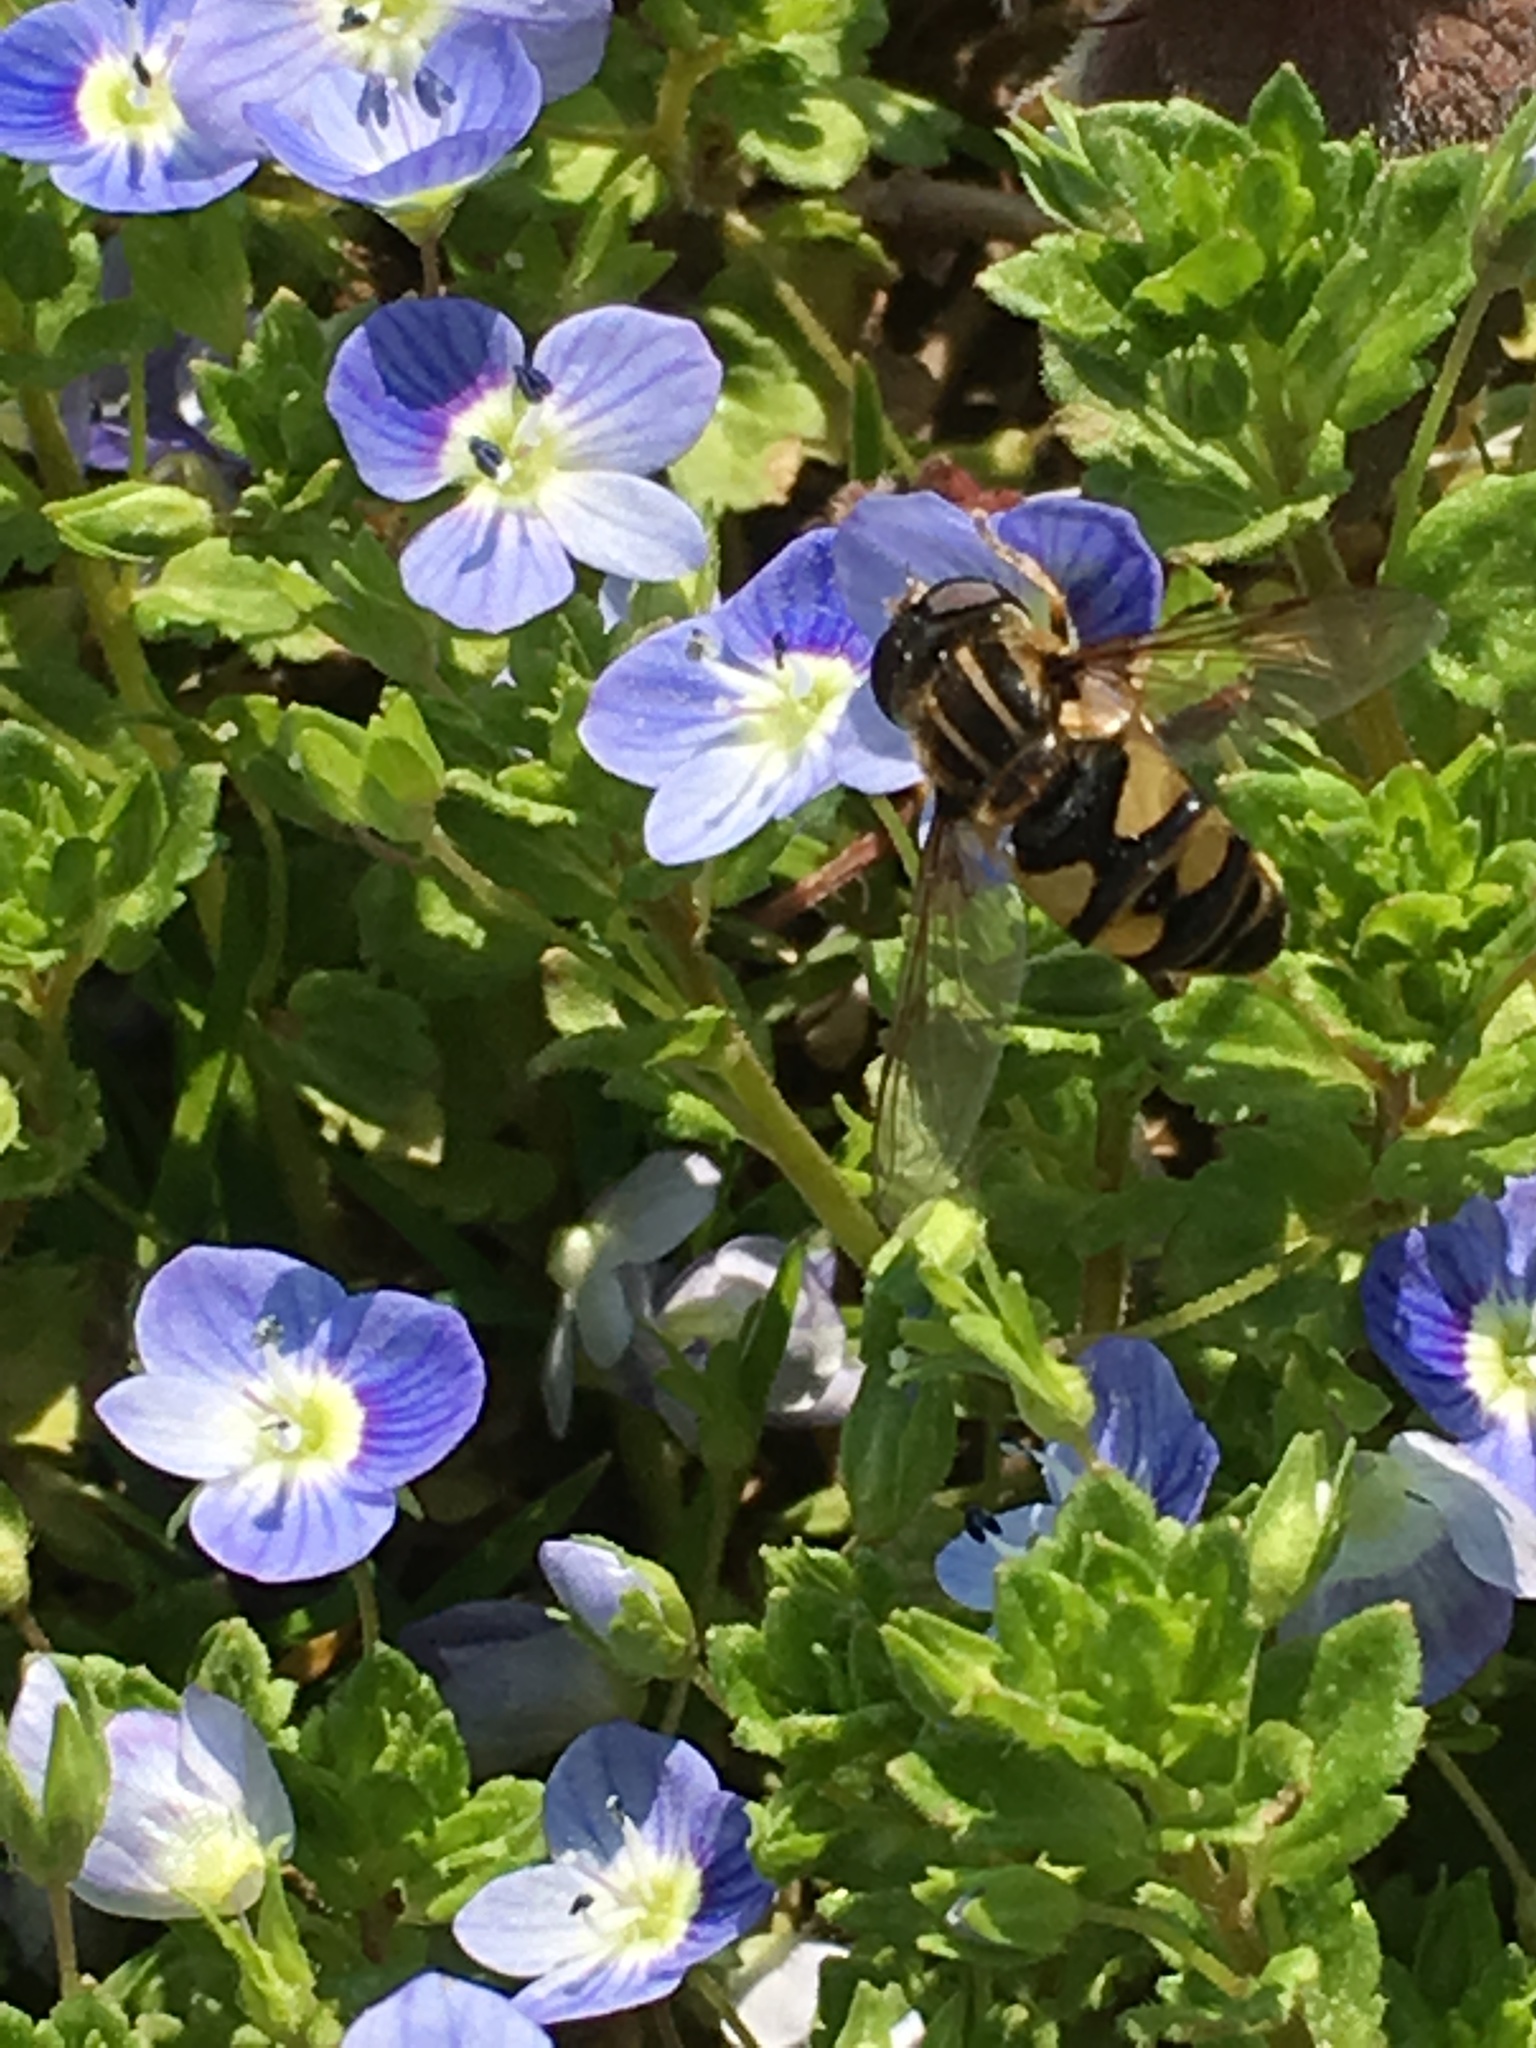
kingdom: Animalia
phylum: Arthropoda
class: Insecta
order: Diptera
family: Syrphidae
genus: Helophilus
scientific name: Helophilus fasciatus
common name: Narrow-headed marsh fly
